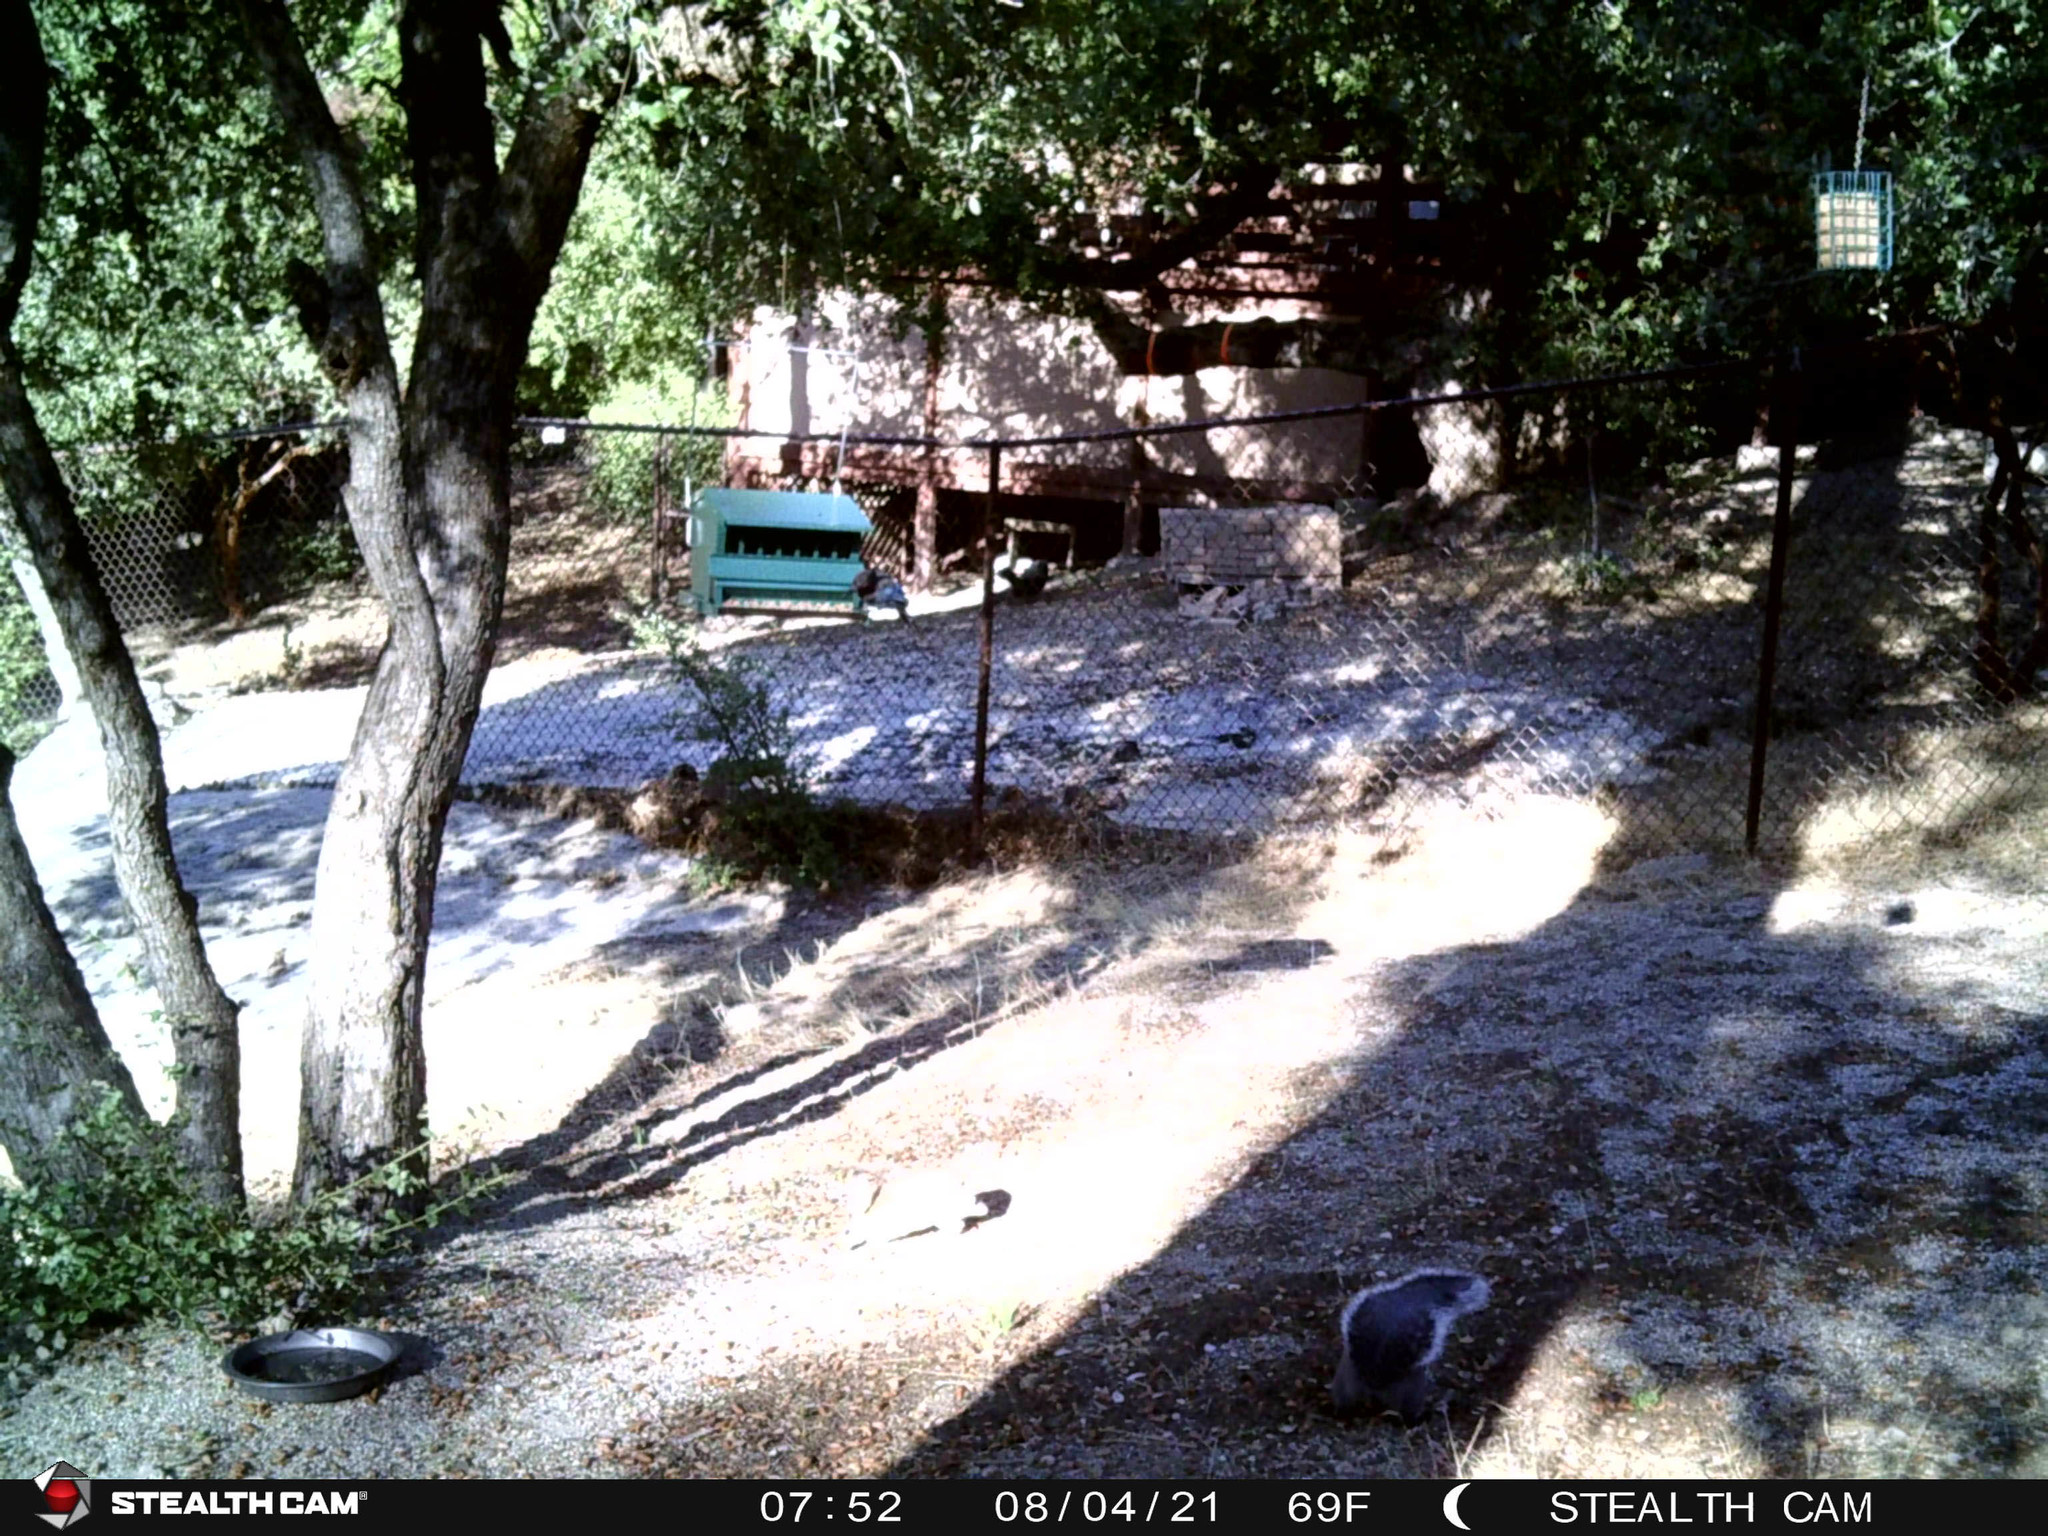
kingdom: Animalia
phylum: Chordata
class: Mammalia
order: Rodentia
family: Sciuridae
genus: Sciurus
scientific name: Sciurus griseus
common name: Western gray squirrel
